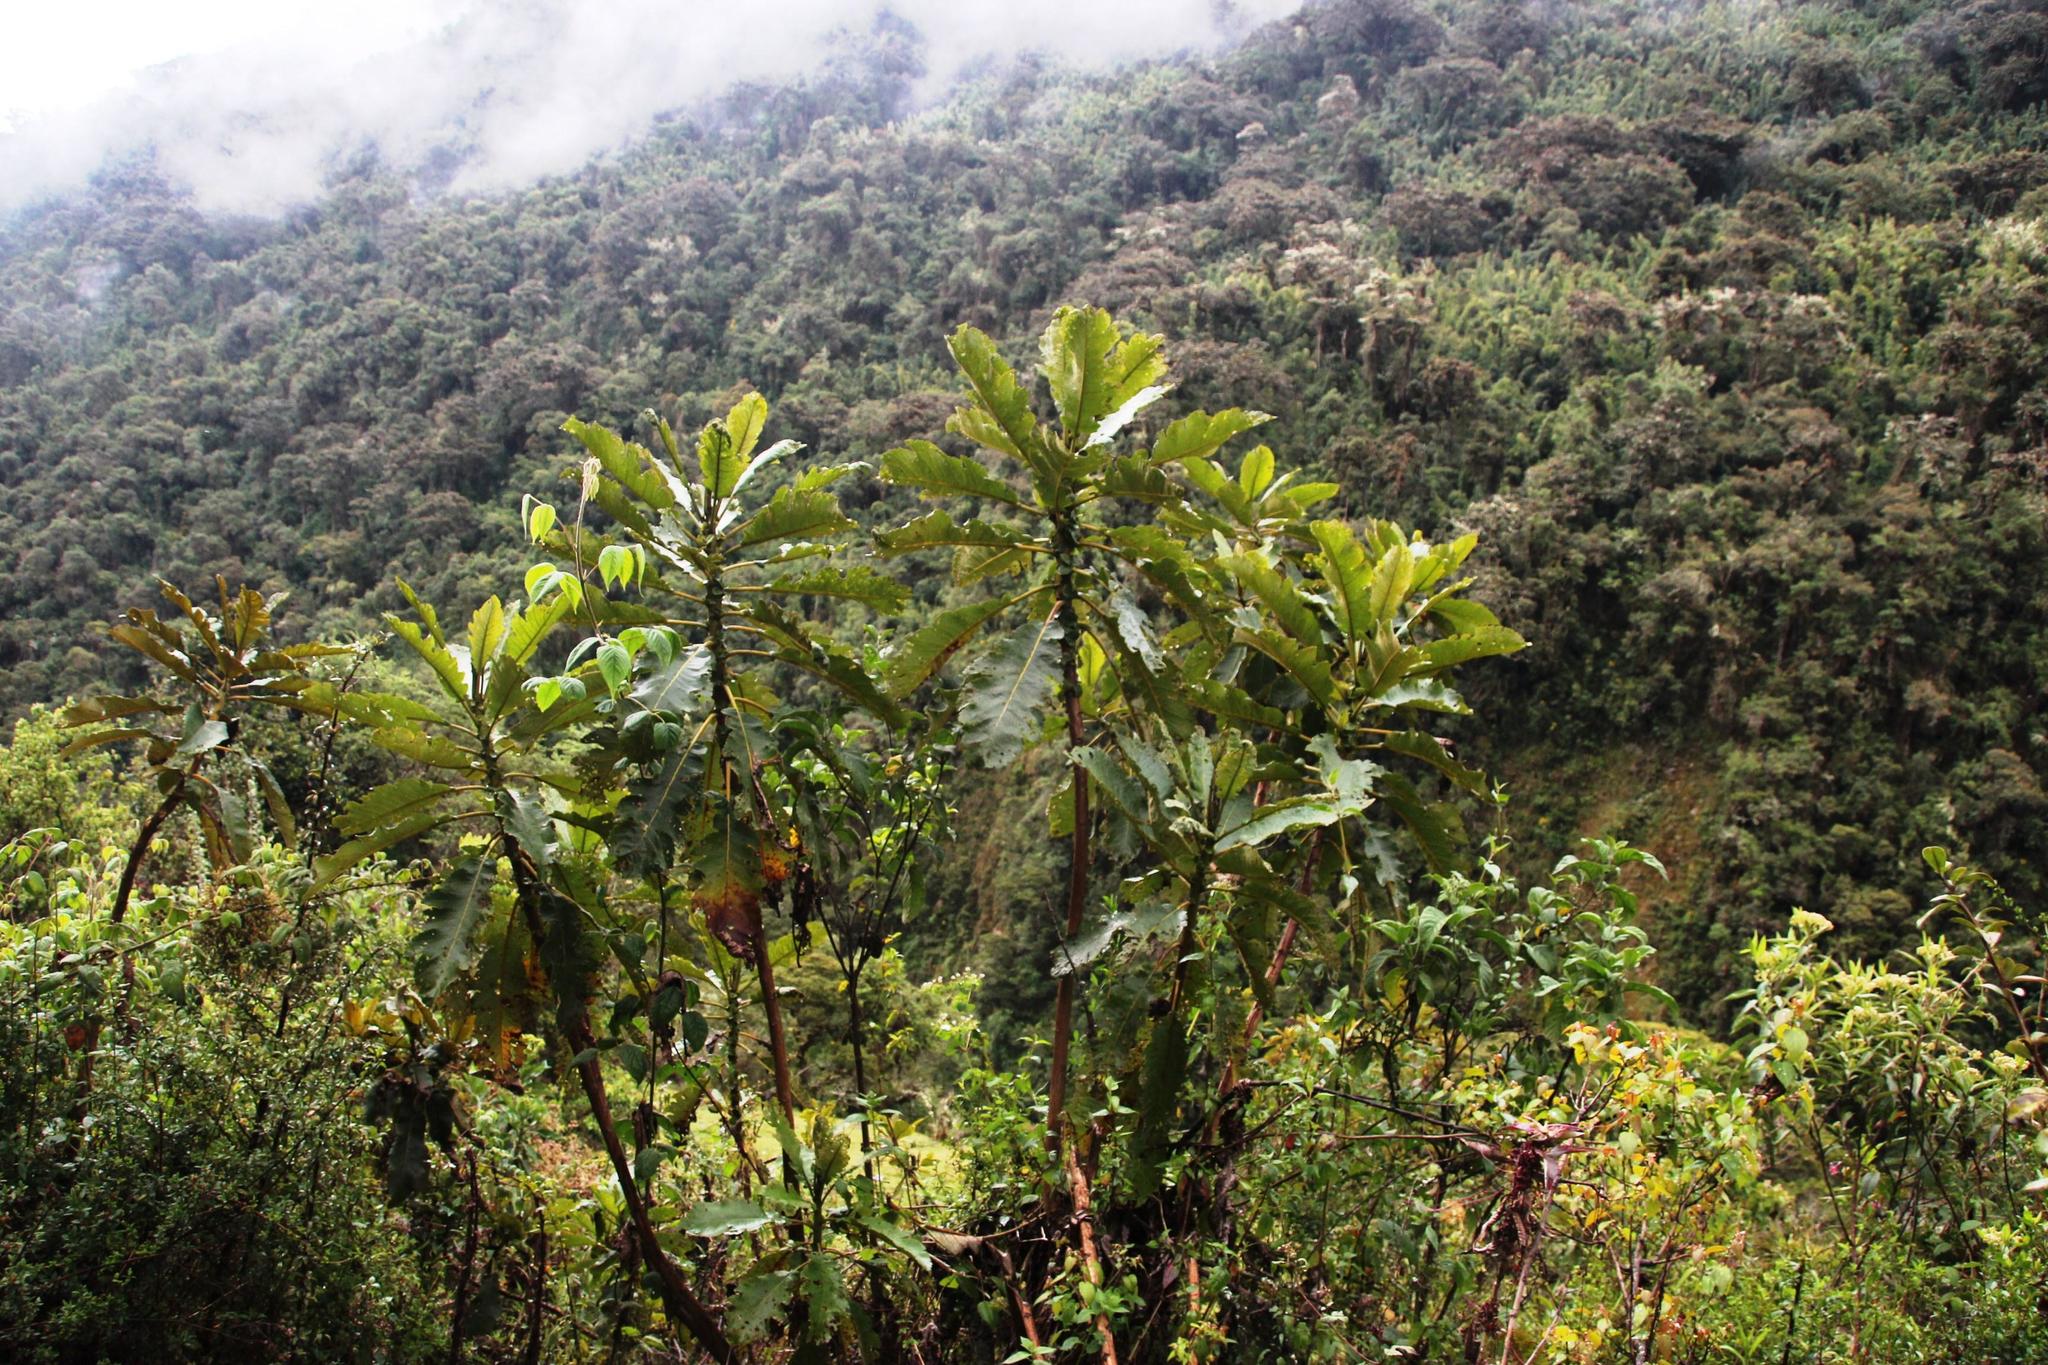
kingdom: Plantae
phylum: Tracheophyta
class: Magnoliopsida
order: Ranunculales
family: Papaveraceae
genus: Bocconia
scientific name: Bocconia integrifolia
